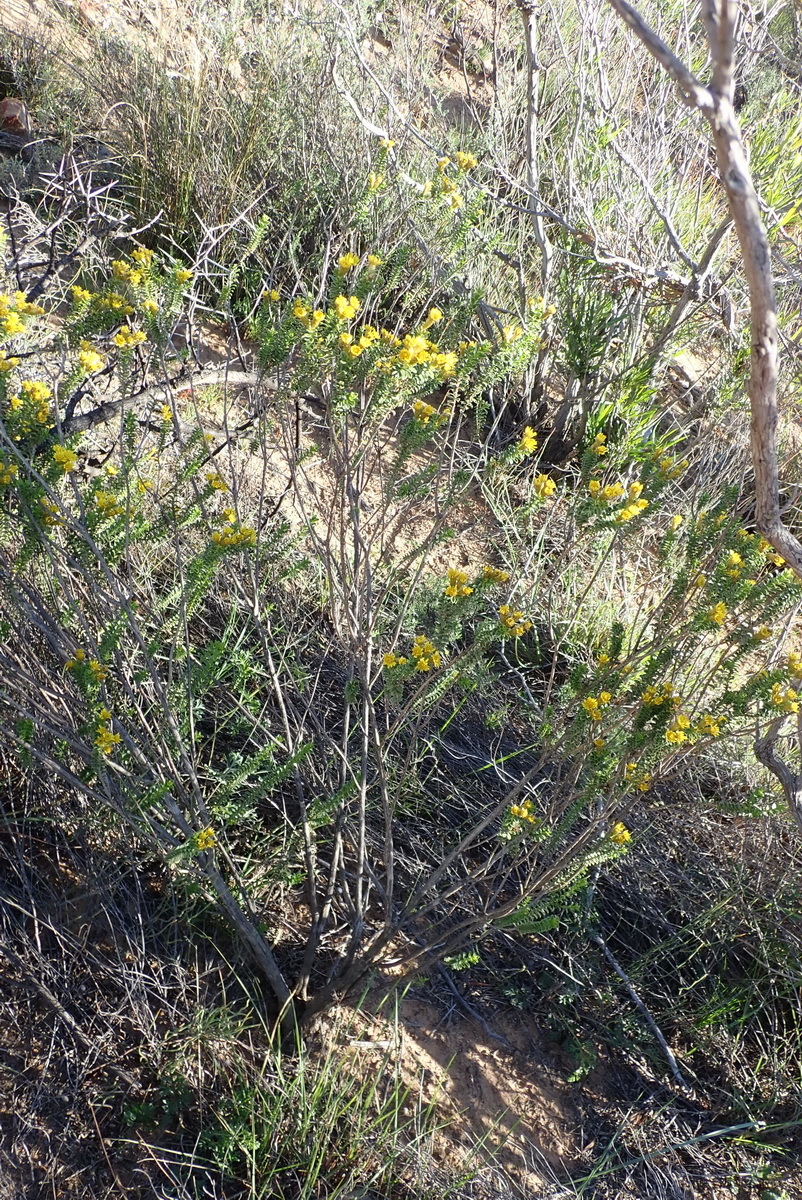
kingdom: Plantae
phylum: Tracheophyta
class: Magnoliopsida
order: Asterales
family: Asteraceae
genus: Oedera
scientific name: Oedera squarrosa
